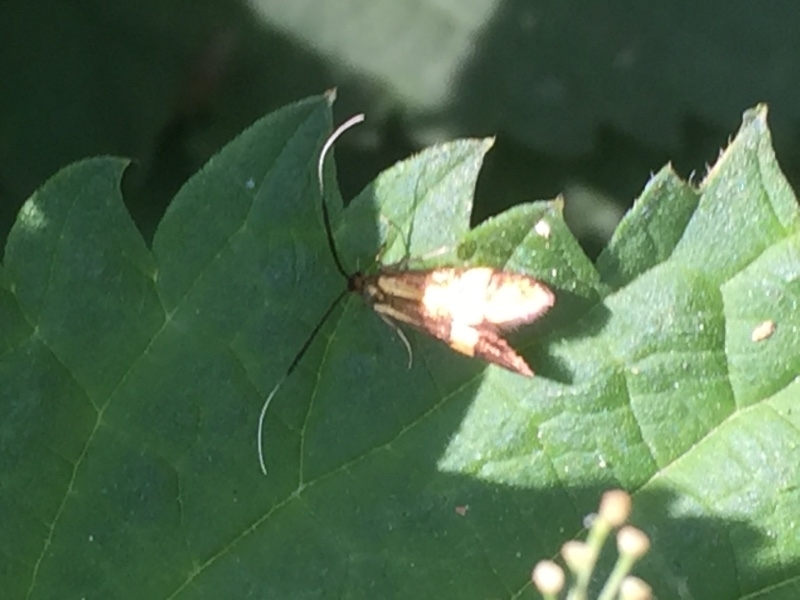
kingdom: Animalia
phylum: Arthropoda
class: Insecta
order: Lepidoptera
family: Adelidae
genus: Nemophora
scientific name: Nemophora degeerella
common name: Yellow-barred long-horn
